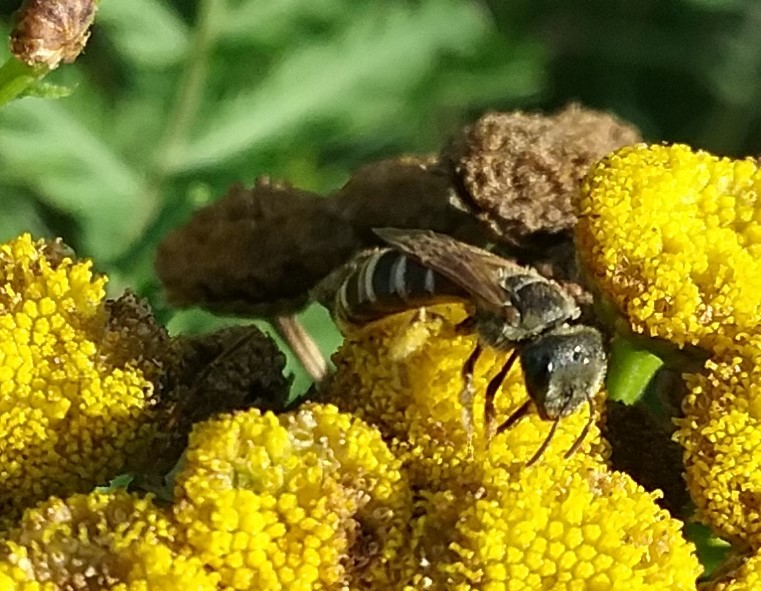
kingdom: Animalia
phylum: Arthropoda
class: Insecta
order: Hymenoptera
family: Halictidae
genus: Halictus
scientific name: Halictus ligatus
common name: Ligated furrow bee
